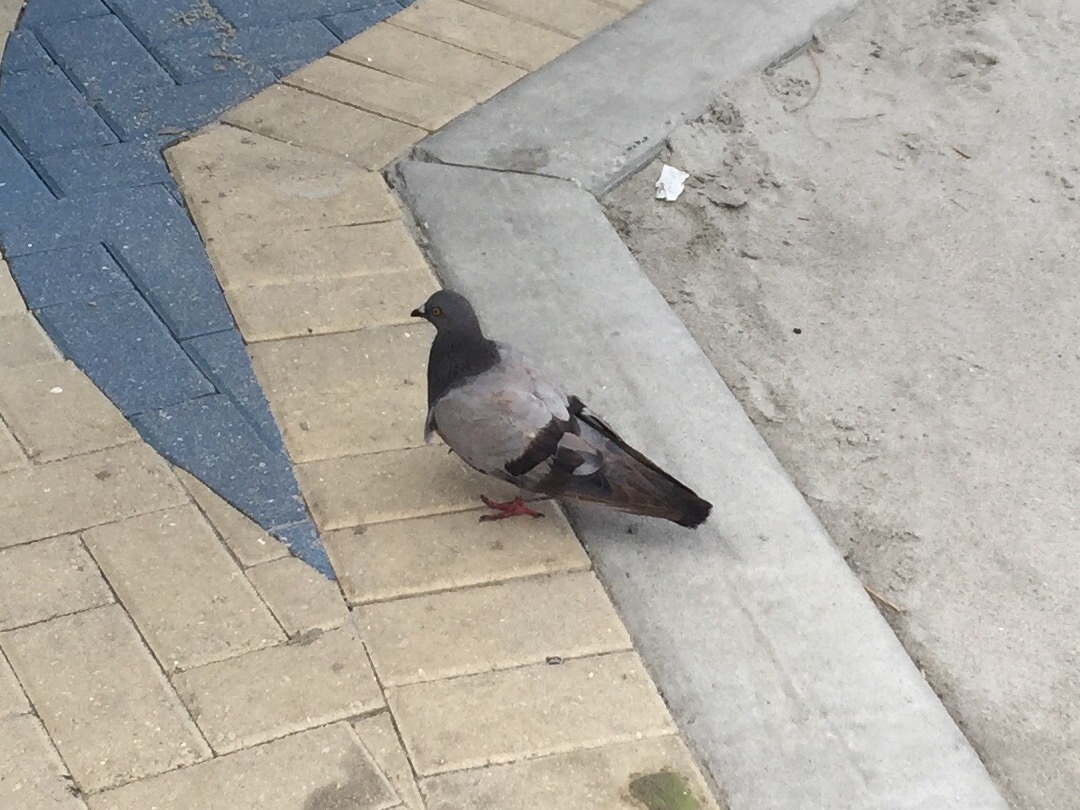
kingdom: Animalia
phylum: Chordata
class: Aves
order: Columbiformes
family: Columbidae
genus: Columba
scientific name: Columba livia
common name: Rock pigeon
